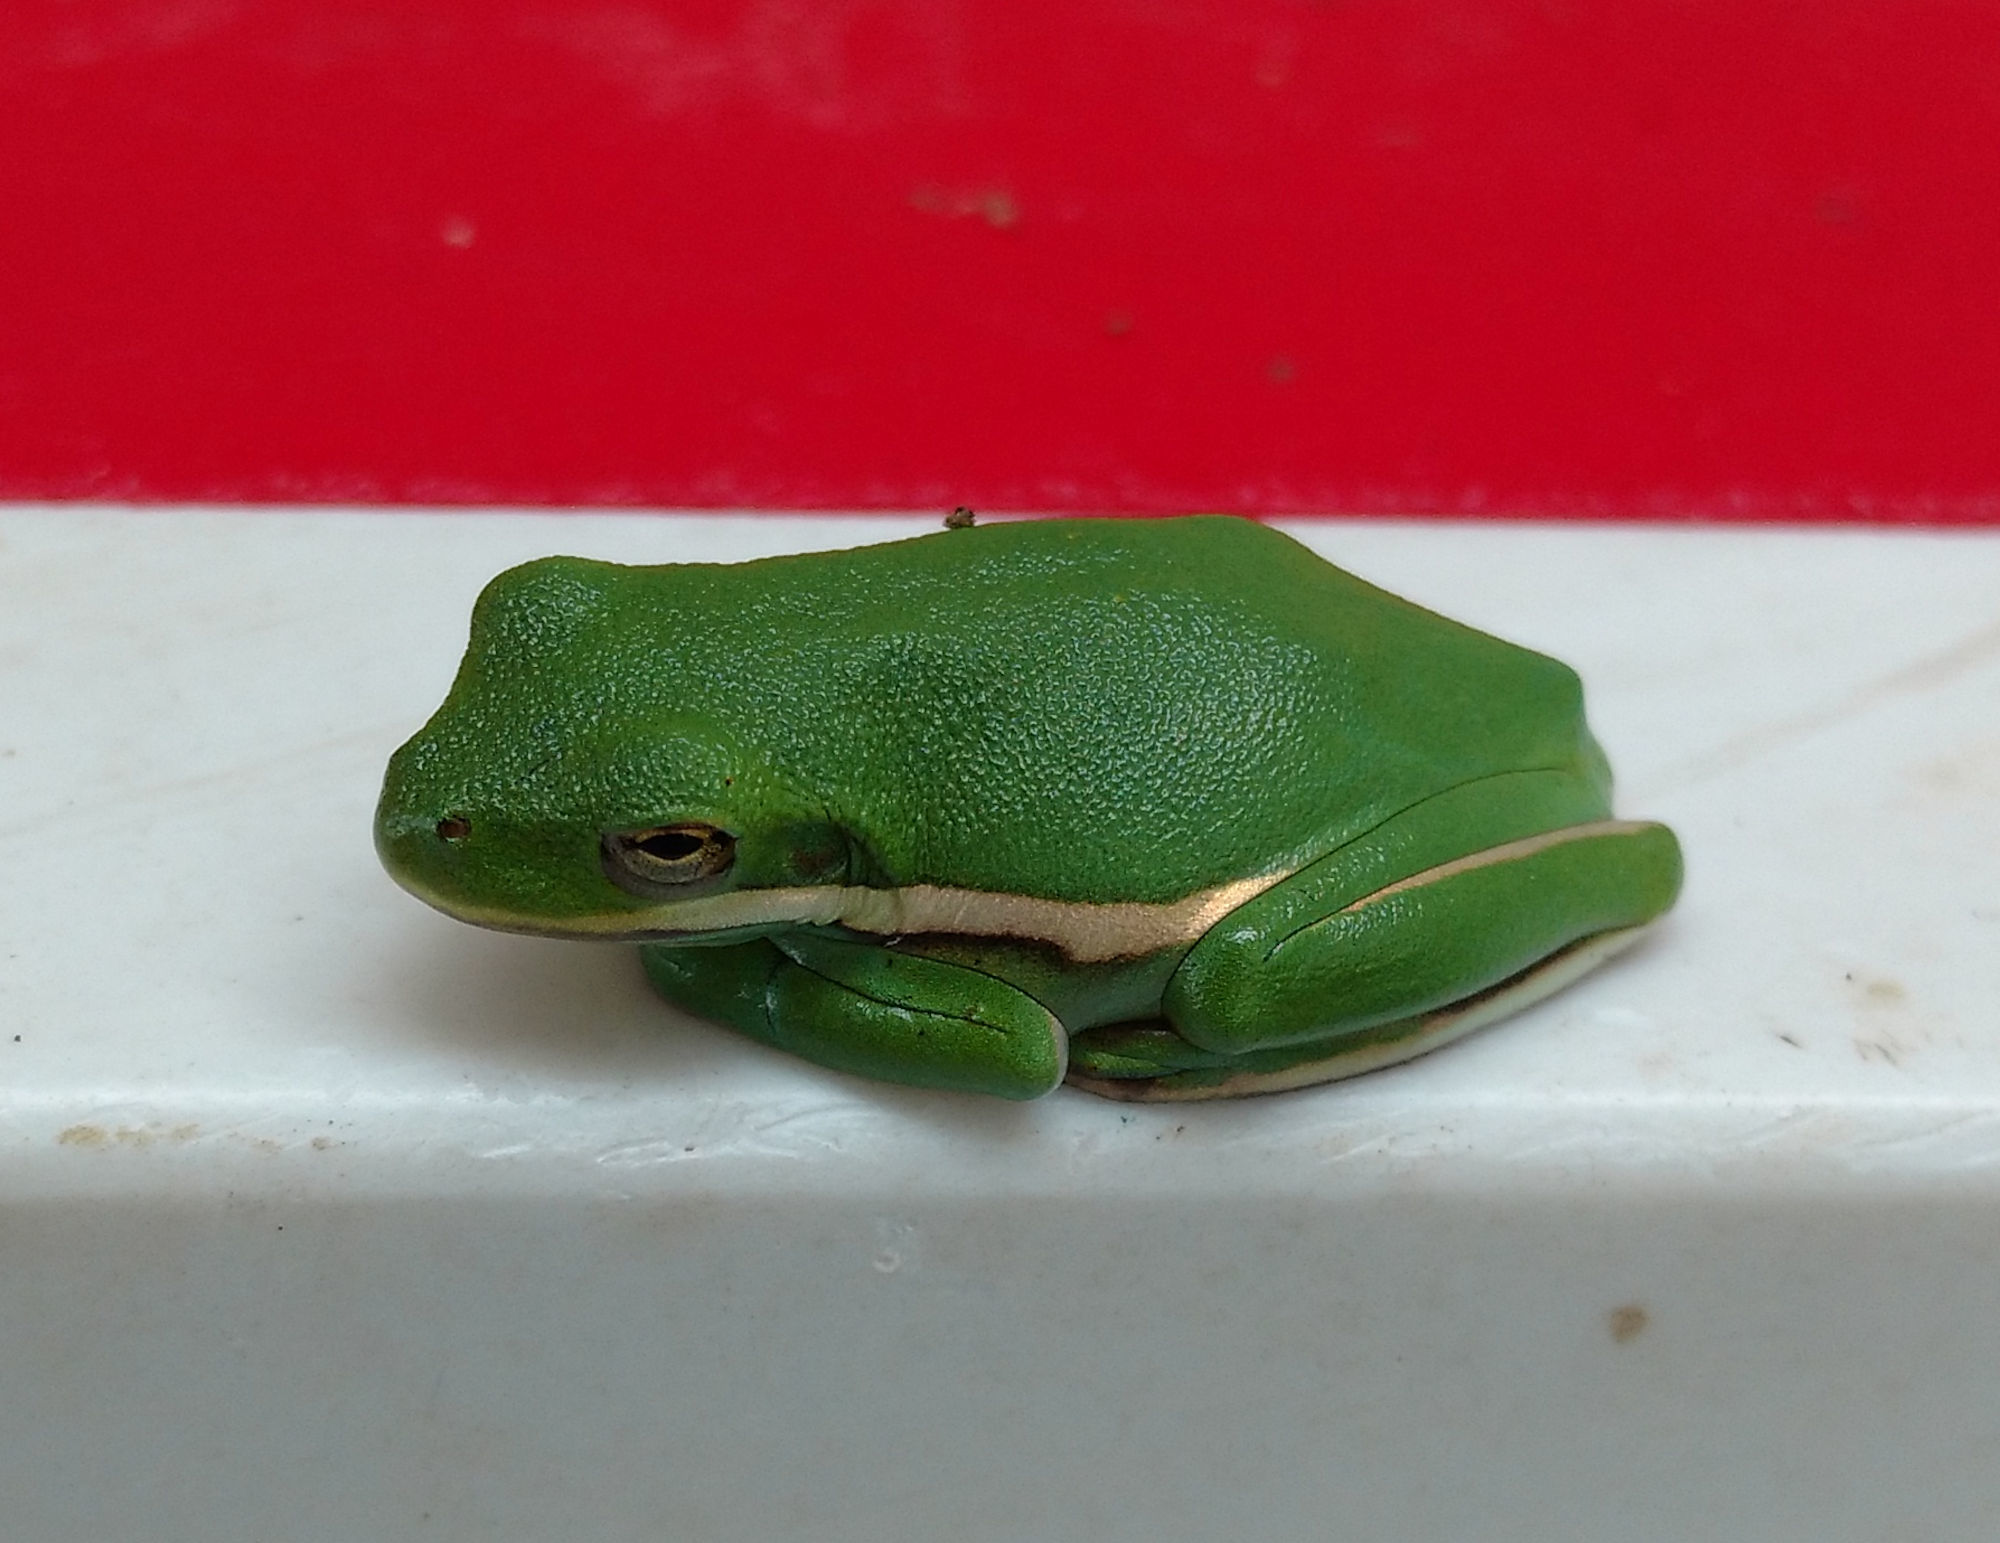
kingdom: Animalia
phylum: Chordata
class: Amphibia
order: Anura
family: Hylidae
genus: Dryophytes
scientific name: Dryophytes cinereus
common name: Green treefrog
